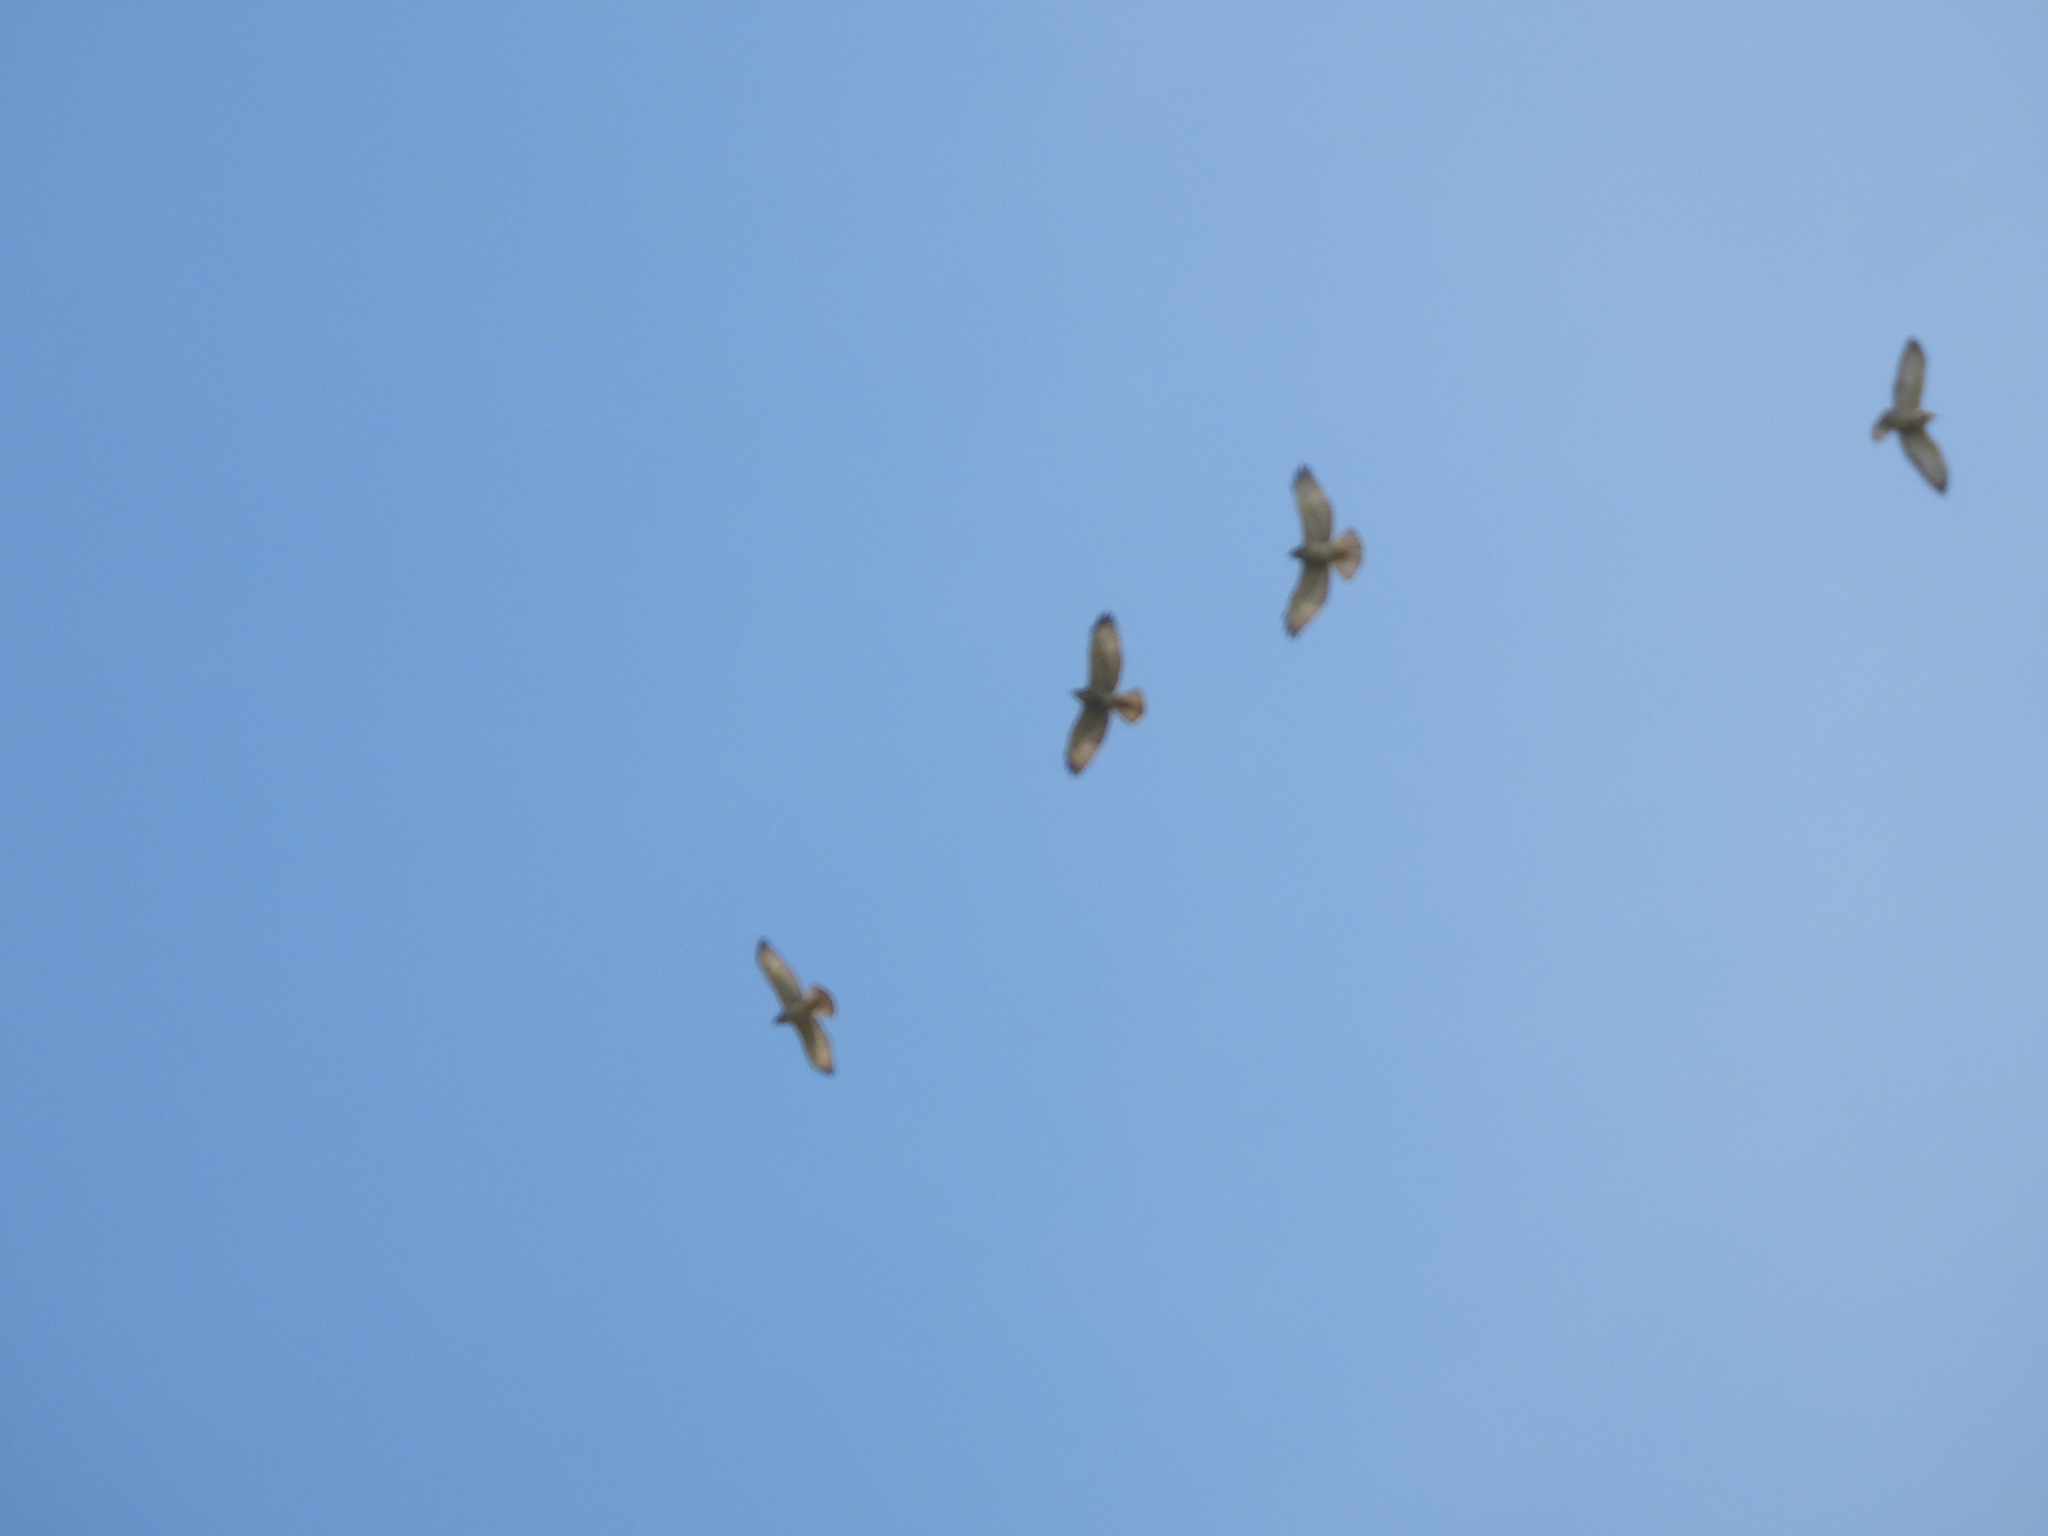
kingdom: Animalia
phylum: Chordata
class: Aves
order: Accipitriformes
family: Accipitridae
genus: Buteo
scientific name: Buteo platypterus
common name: Broad-winged hawk
